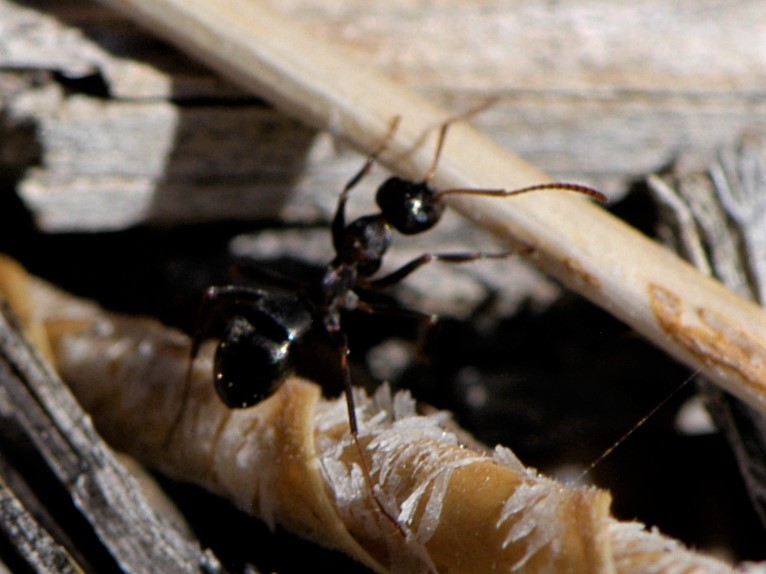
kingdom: Animalia
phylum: Arthropoda
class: Insecta
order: Hymenoptera
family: Formicidae
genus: Formica
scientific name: Formica
